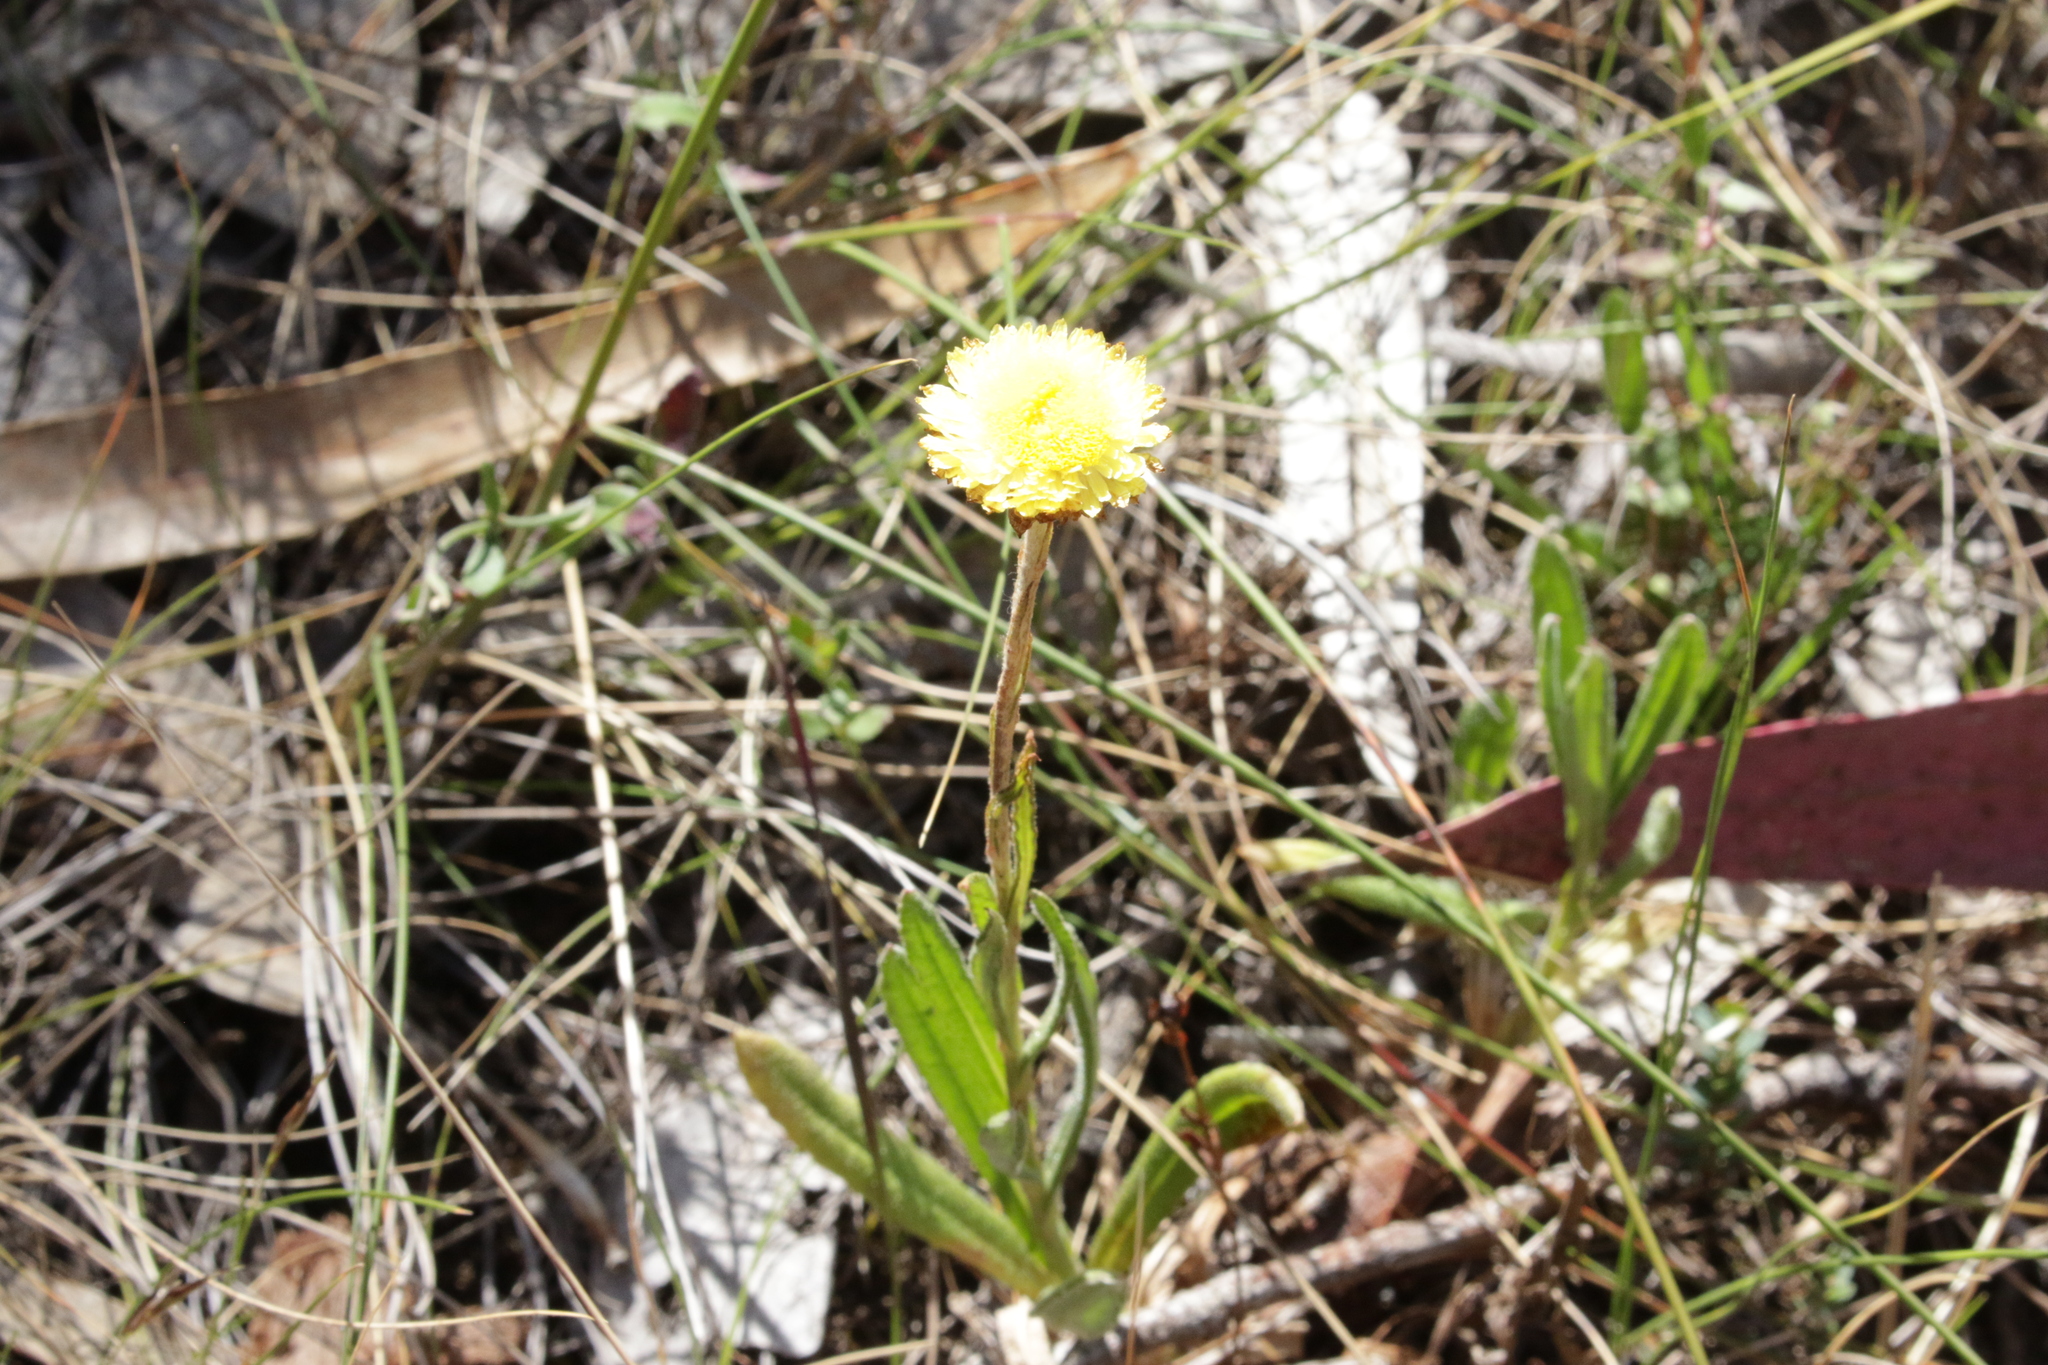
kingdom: Plantae
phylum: Tracheophyta
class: Magnoliopsida
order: Asterales
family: Asteraceae
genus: Coronidium
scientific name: Coronidium scorpioides
